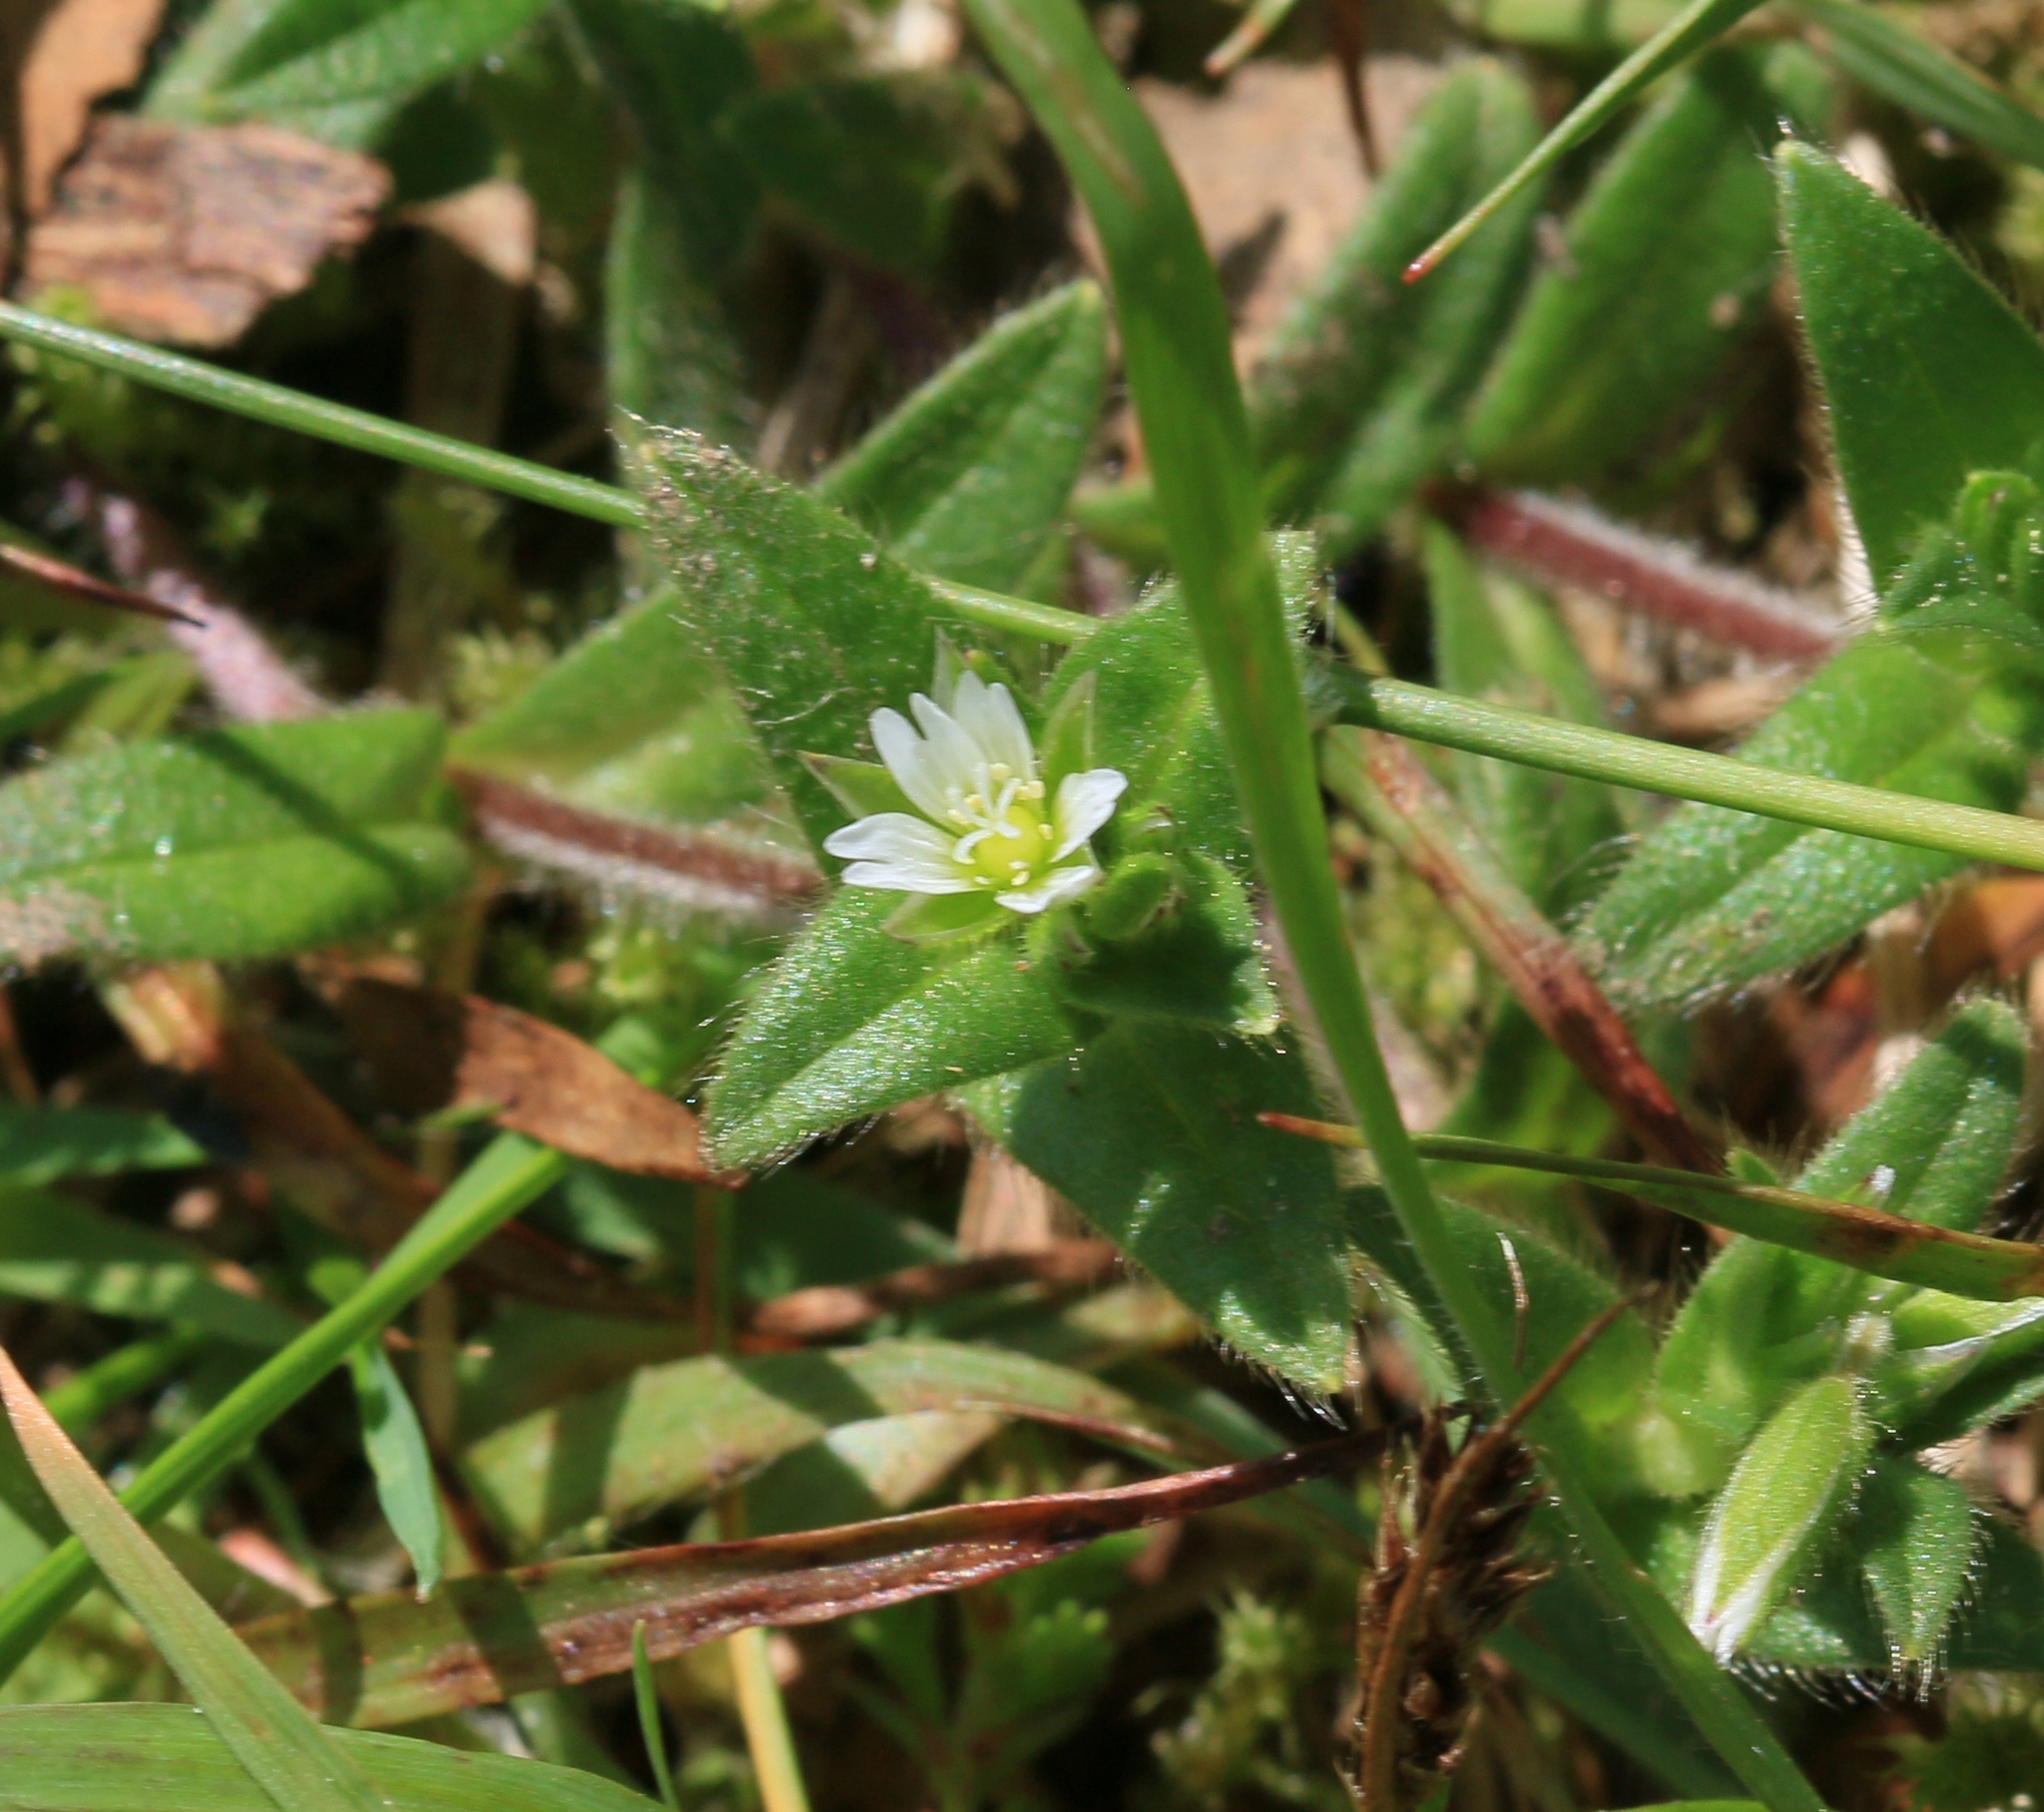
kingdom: Plantae
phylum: Tracheophyta
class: Magnoliopsida
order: Caryophyllales
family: Caryophyllaceae
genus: Cerastium
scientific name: Cerastium fontanum
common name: Common mouse-ear
